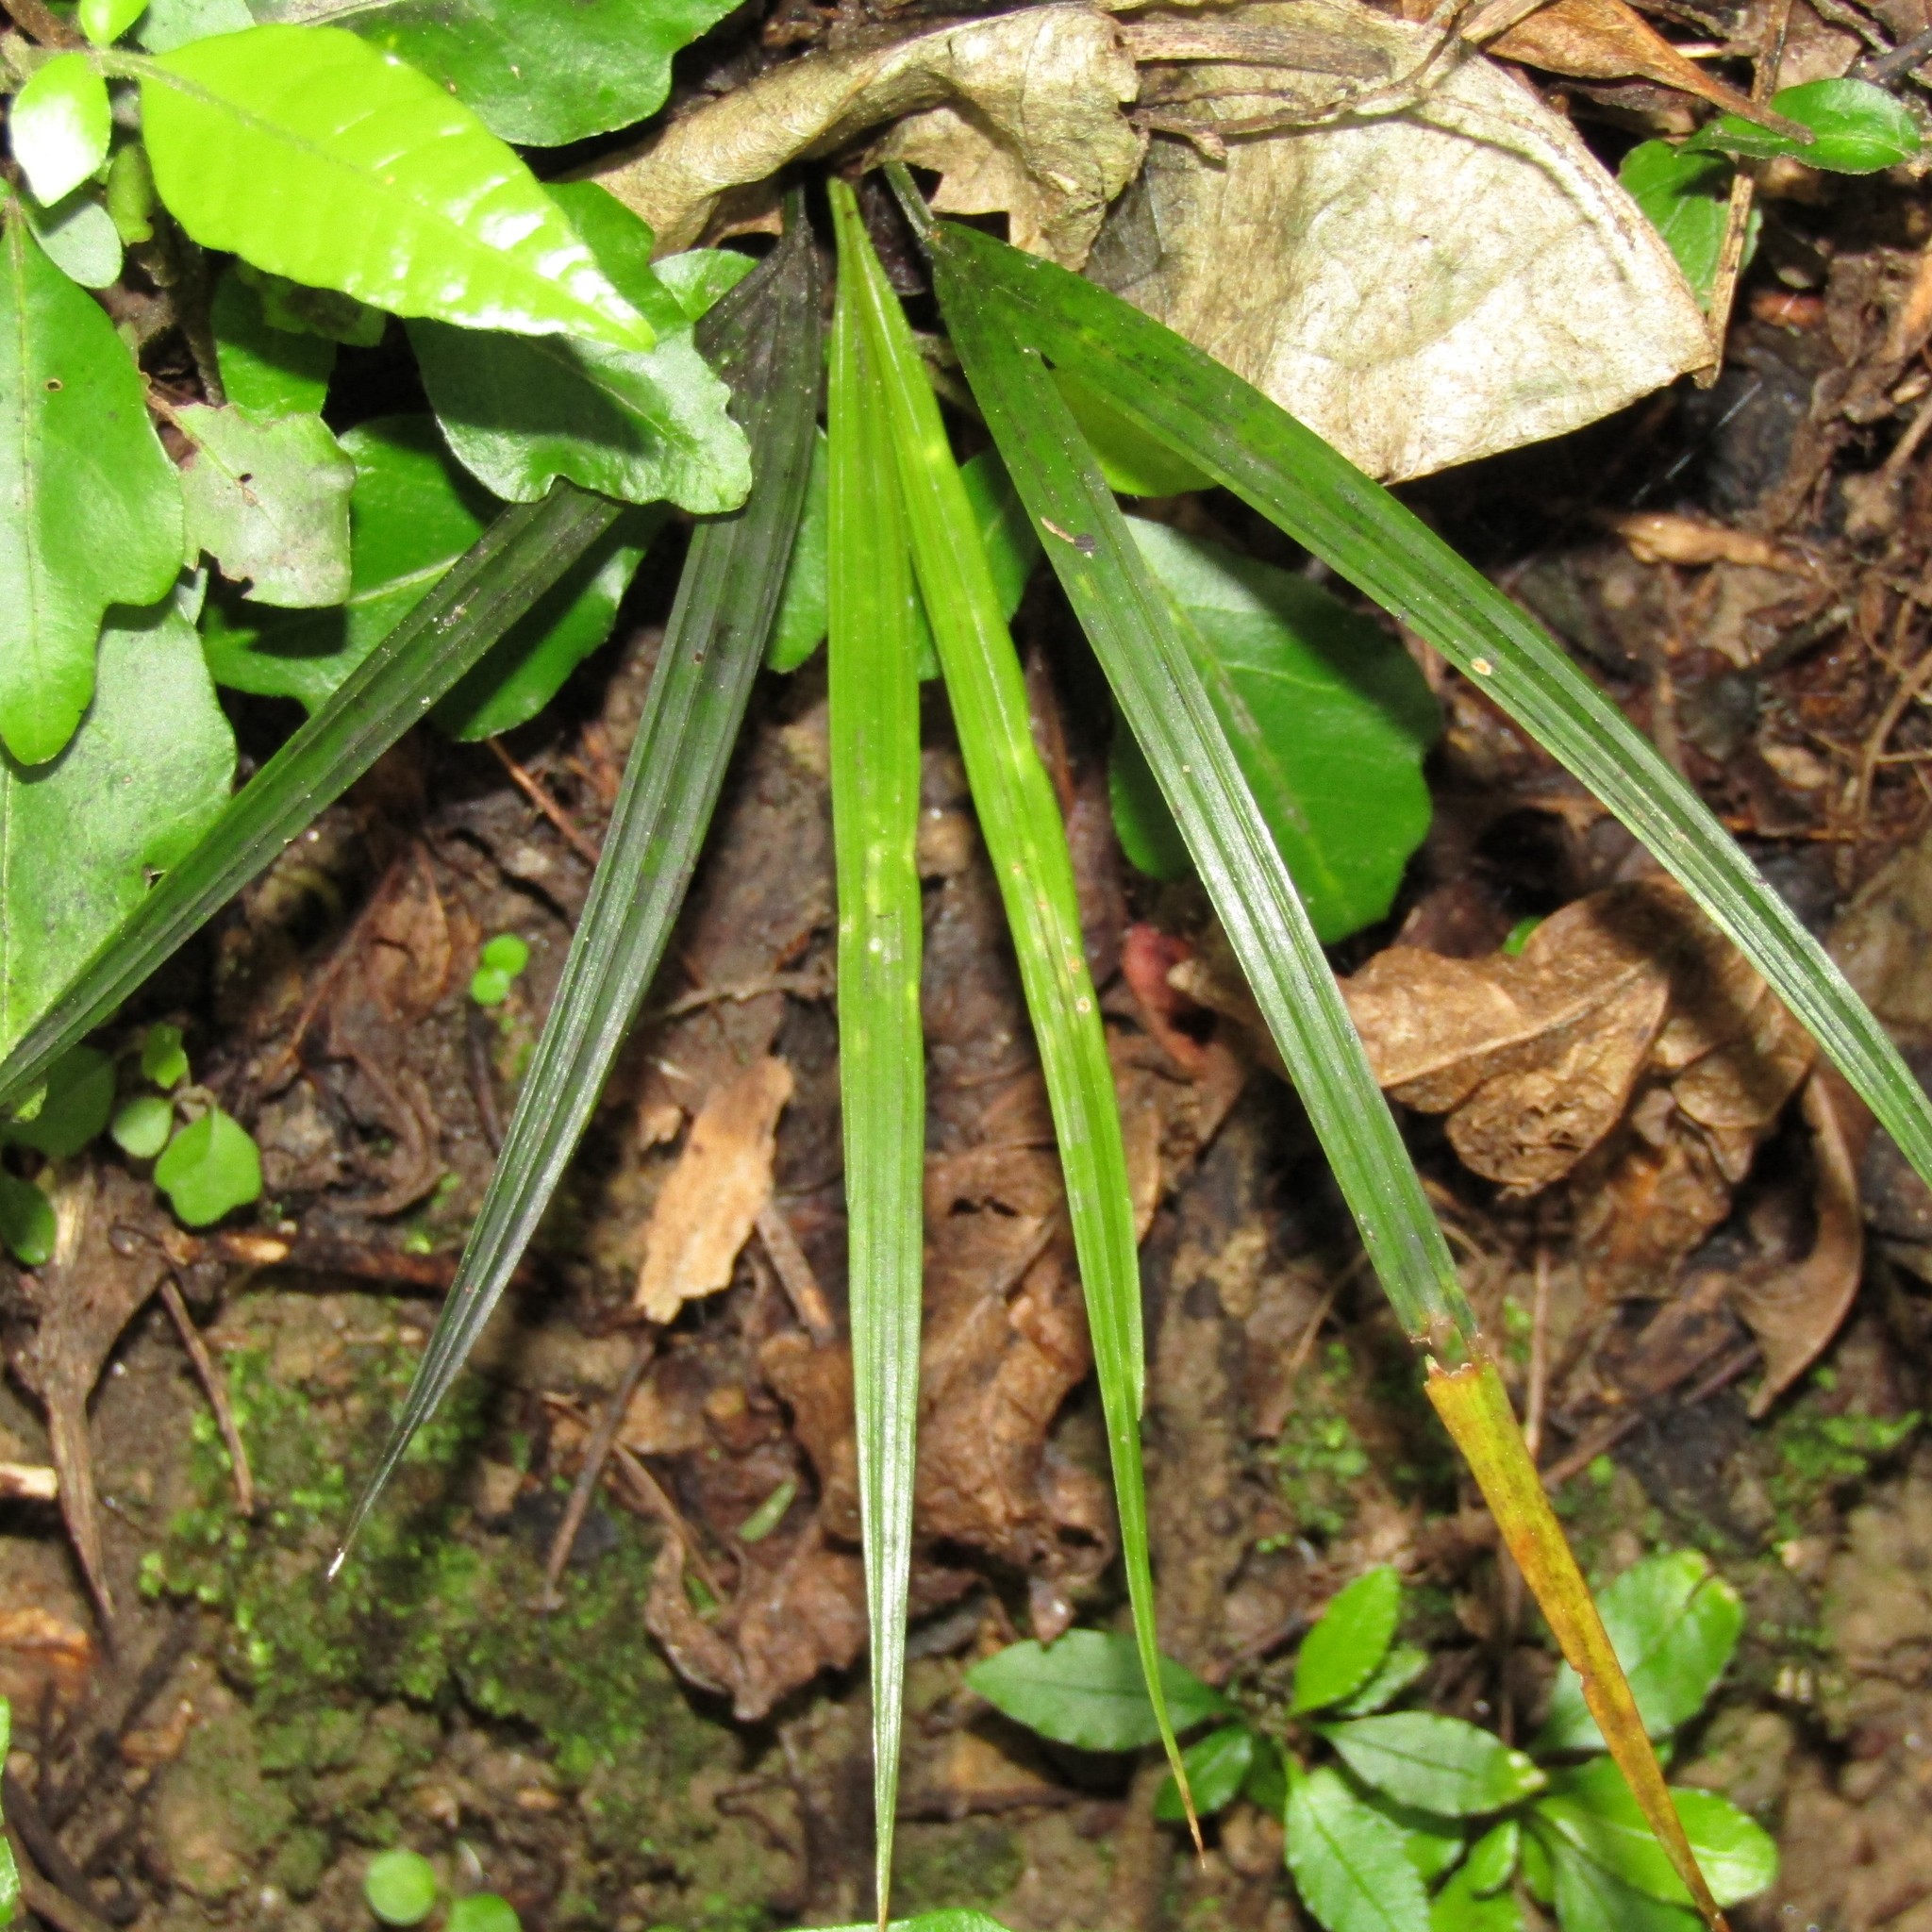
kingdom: Plantae
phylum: Tracheophyta
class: Liliopsida
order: Arecales
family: Arecaceae
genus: Rhopalostylis
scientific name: Rhopalostylis sapida
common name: Feather-duster palm
